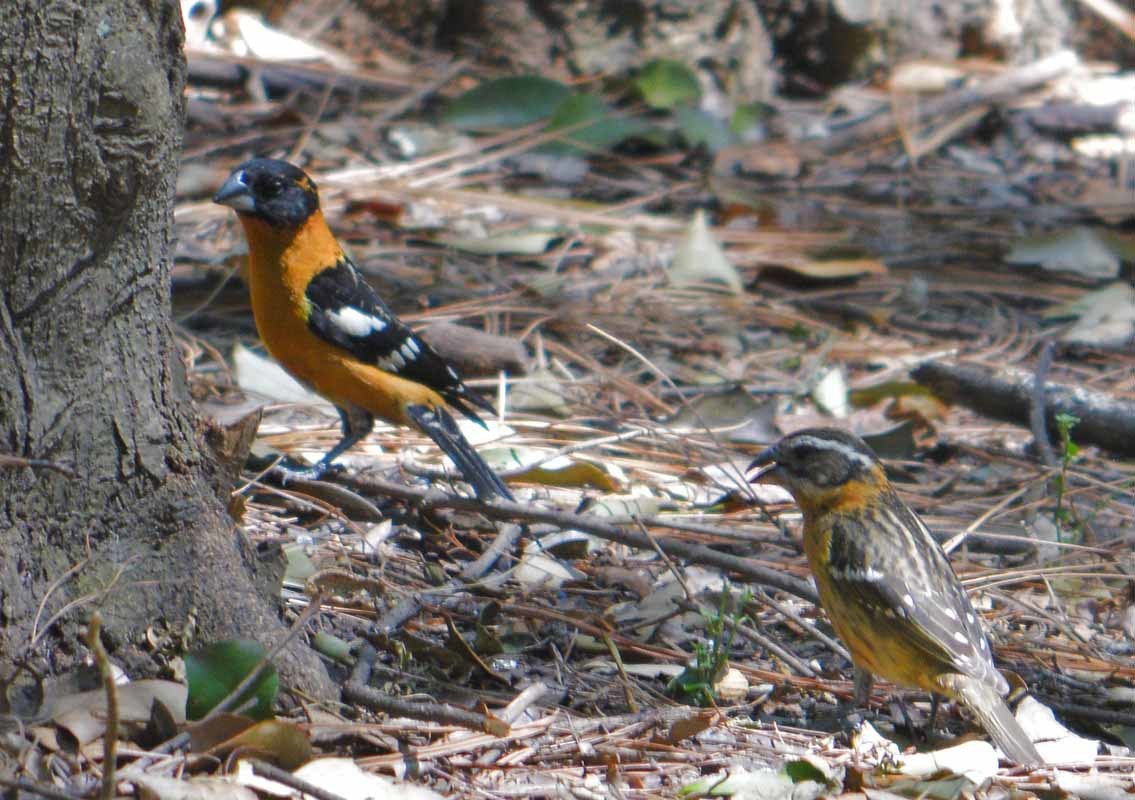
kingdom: Animalia
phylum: Chordata
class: Aves
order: Passeriformes
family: Cardinalidae
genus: Pheucticus
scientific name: Pheucticus melanocephalus
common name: Black-headed grosbeak
